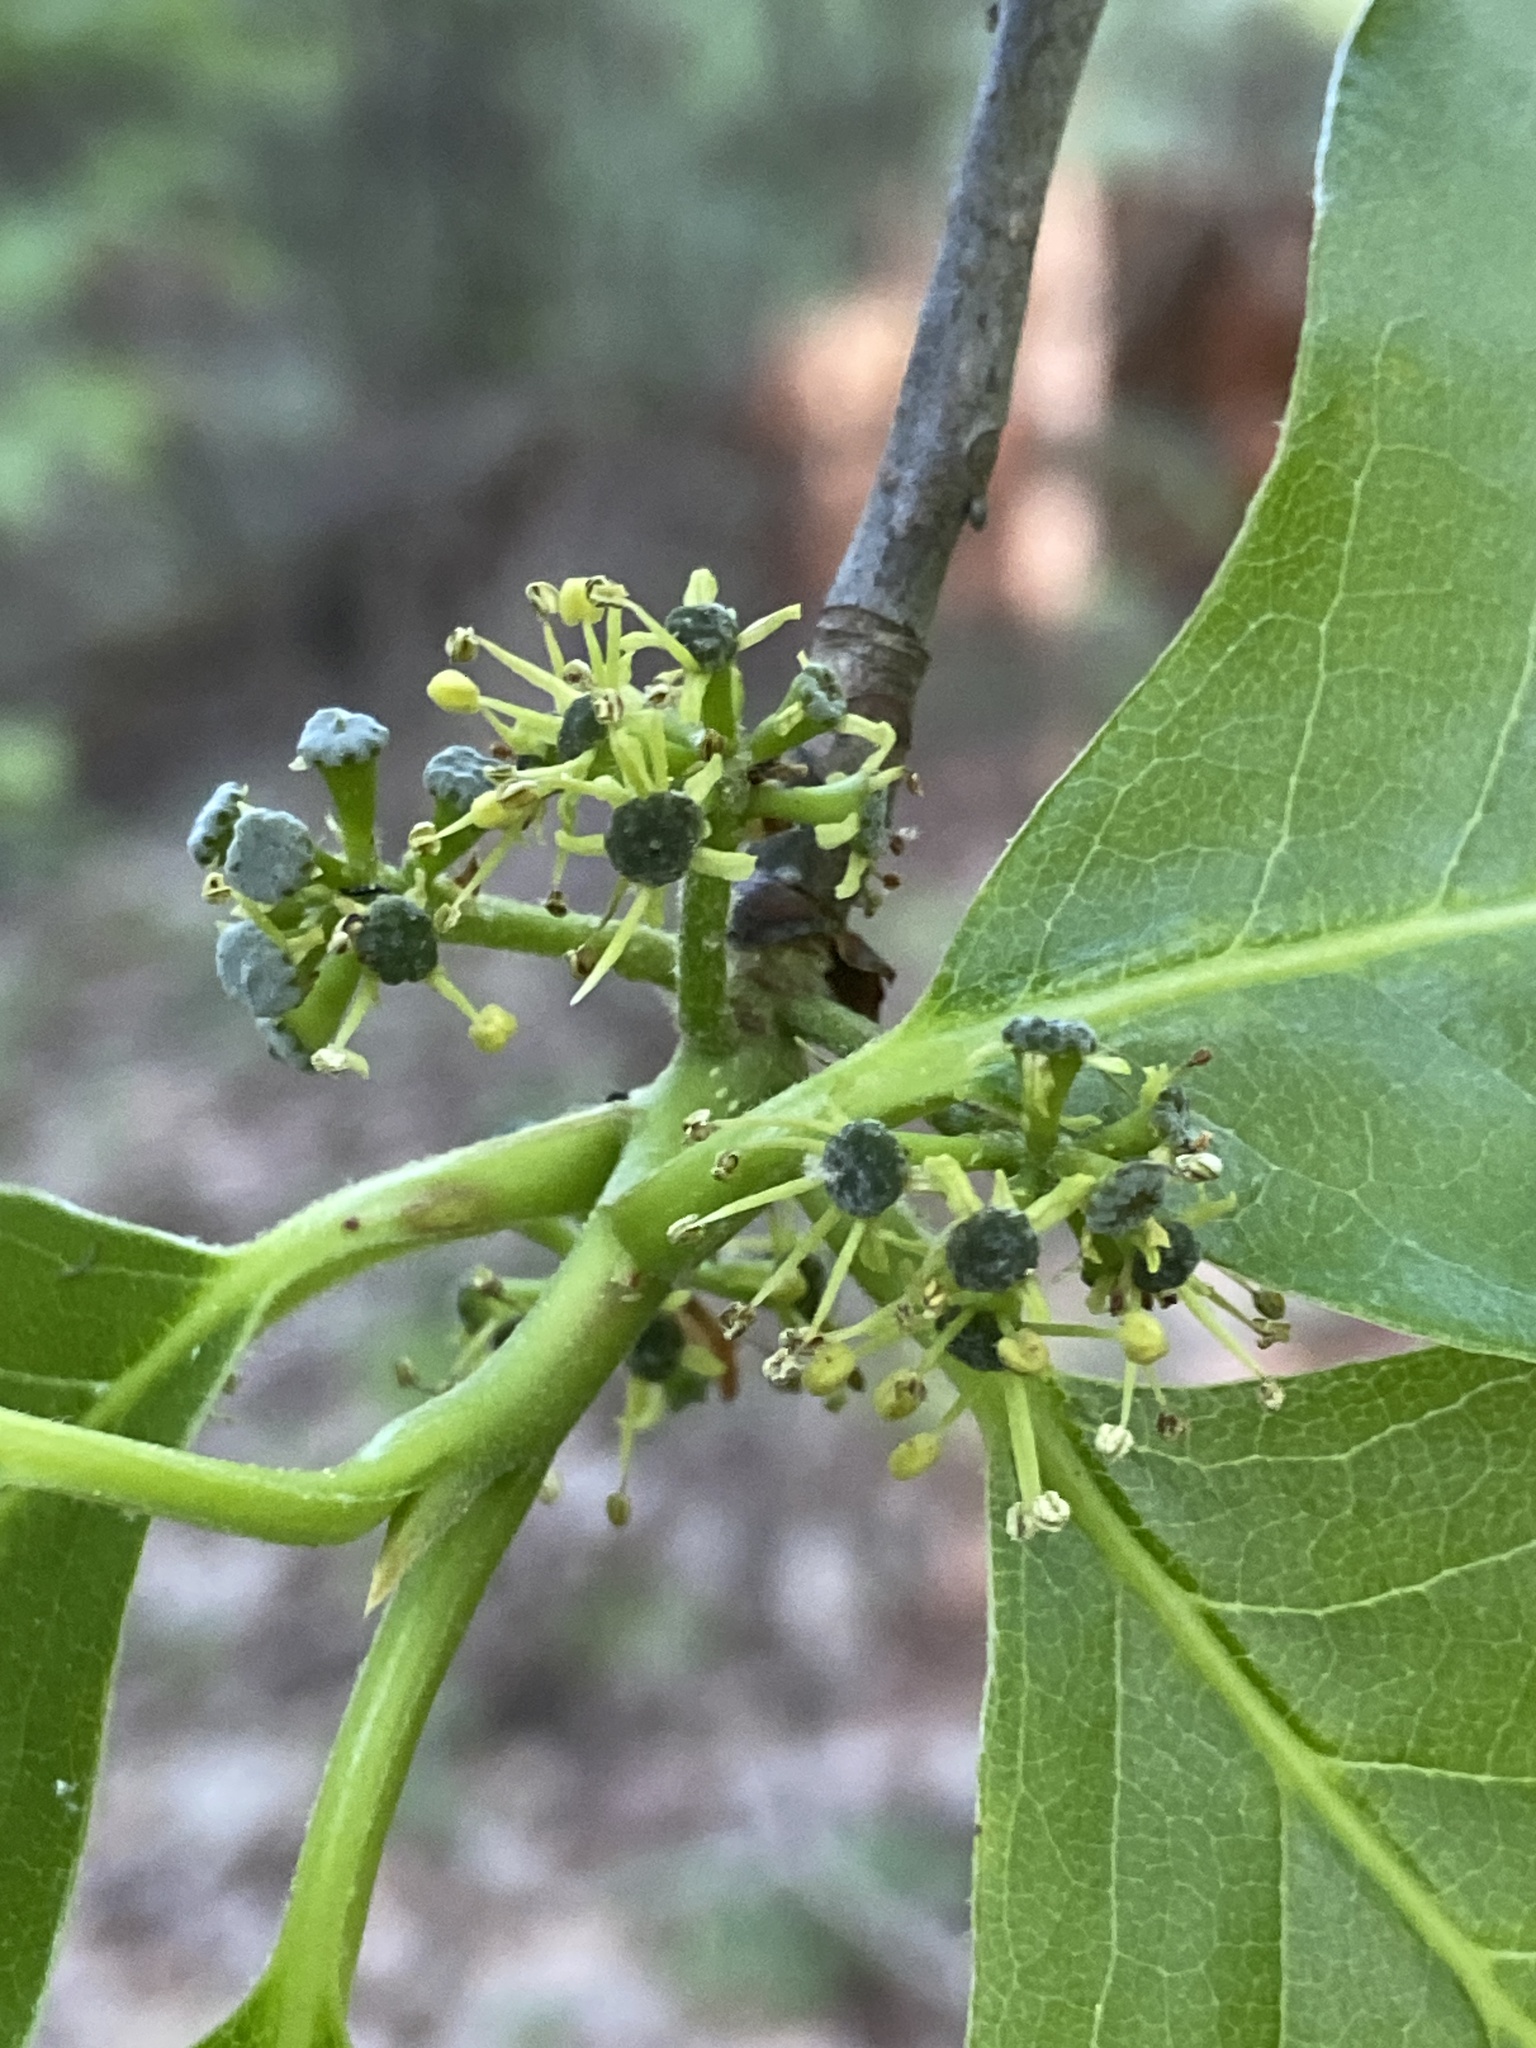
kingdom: Plantae
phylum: Tracheophyta
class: Magnoliopsida
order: Cornales
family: Nyssaceae
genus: Nyssa
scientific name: Nyssa sylvatica
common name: Black tupelo
